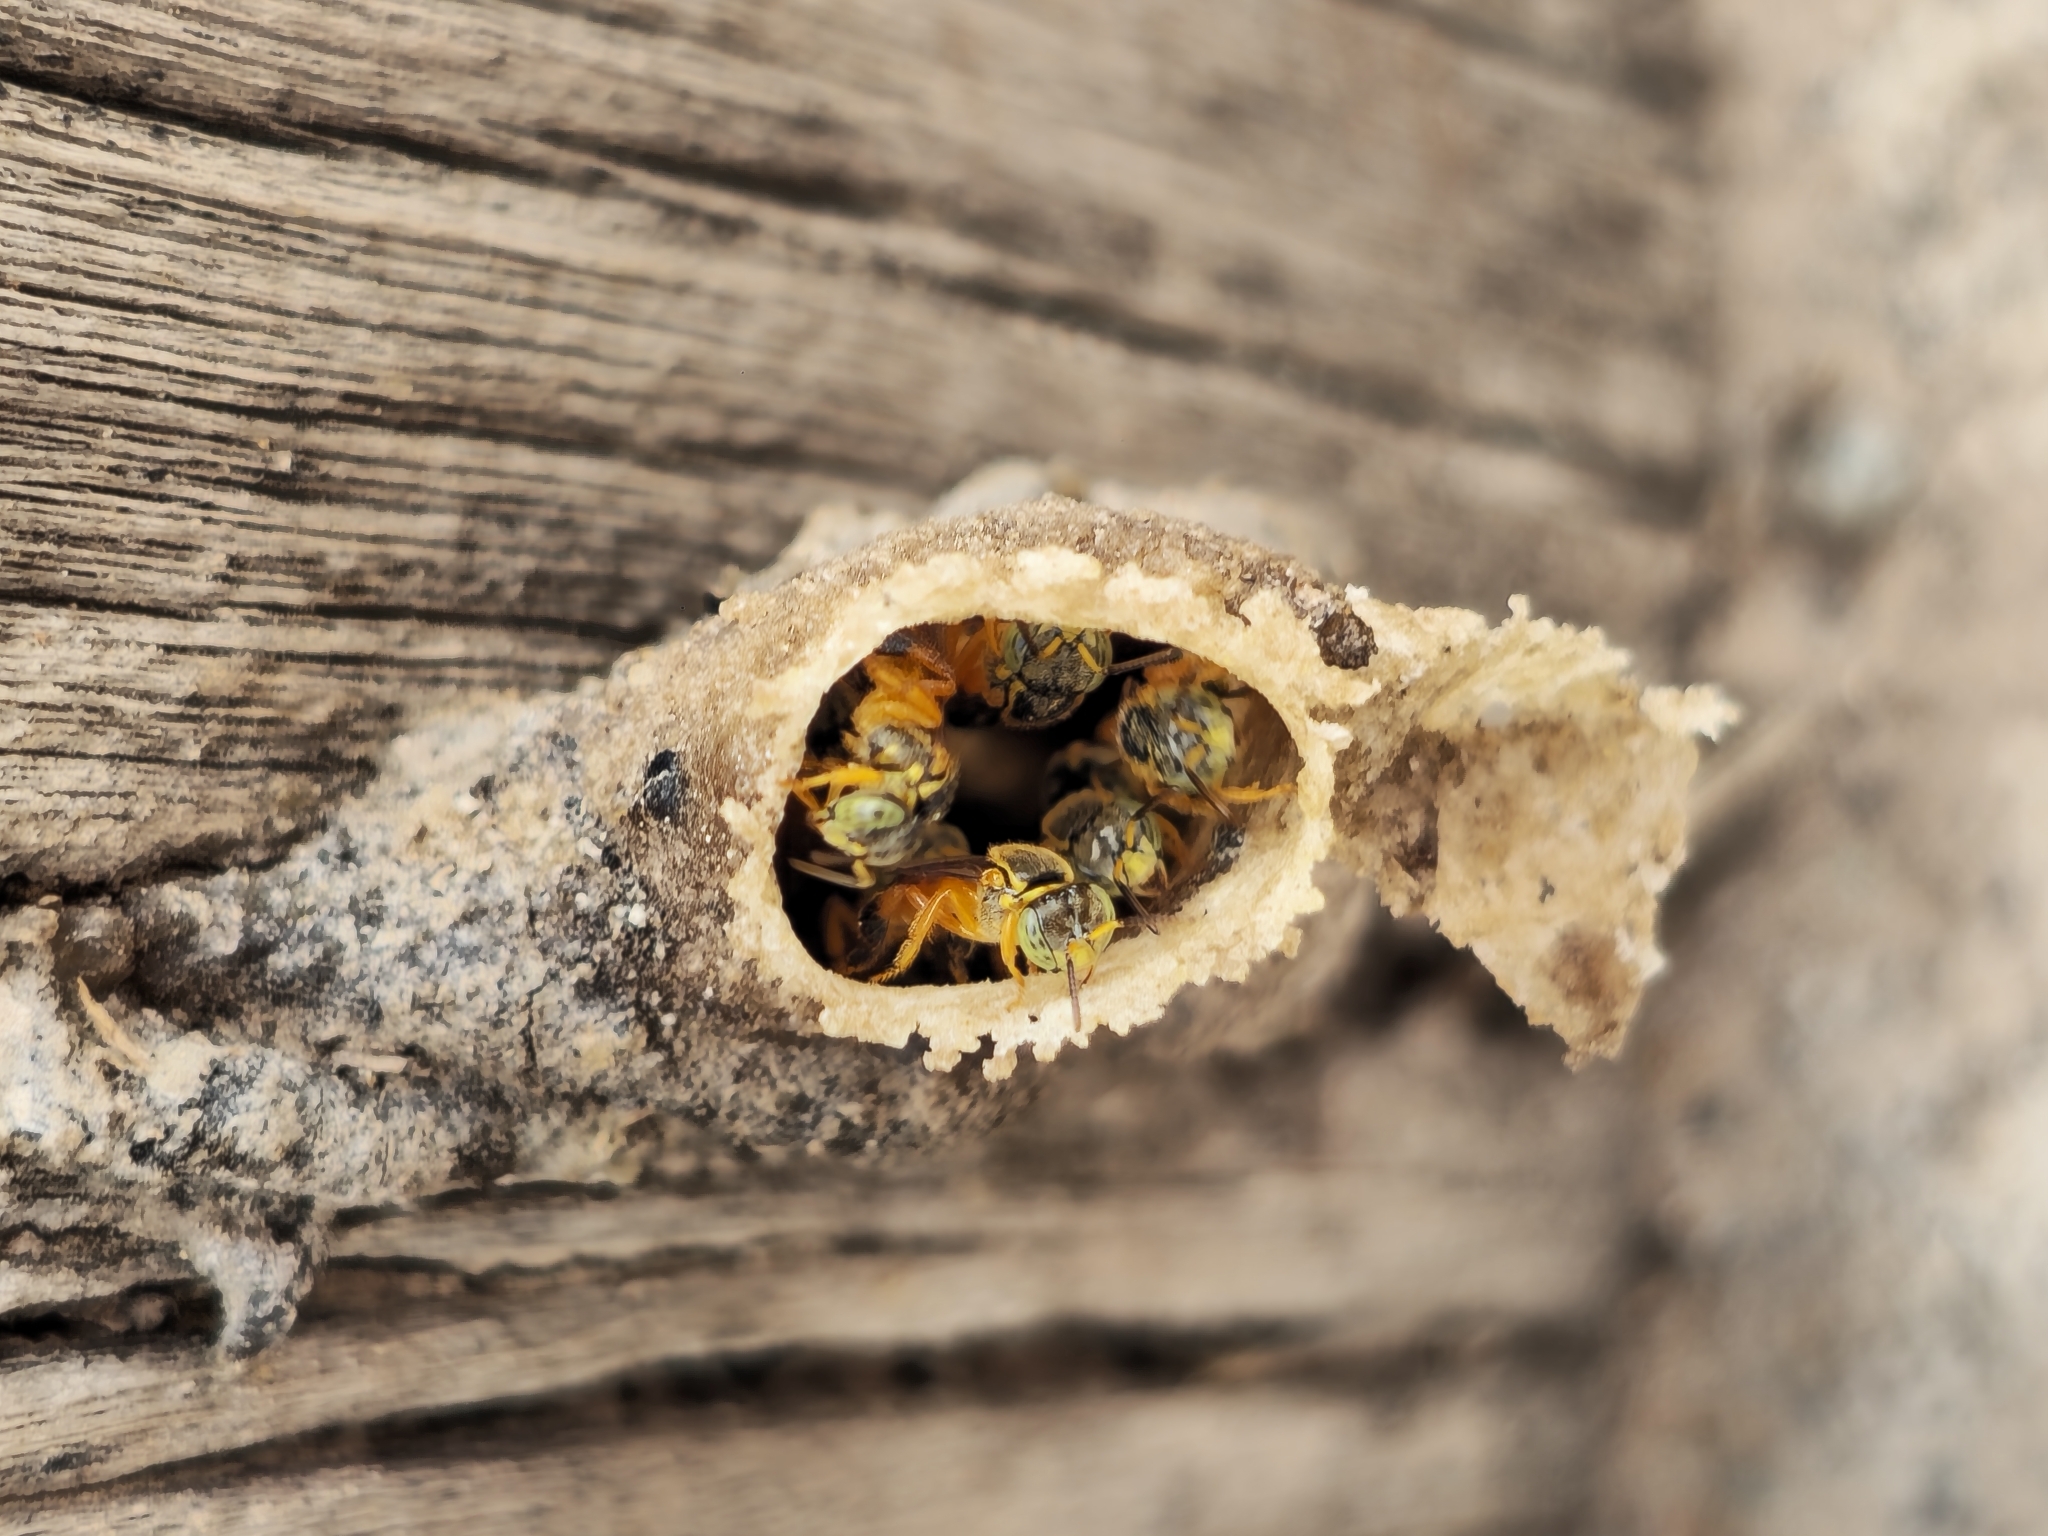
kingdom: Animalia
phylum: Arthropoda
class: Insecta
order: Hymenoptera
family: Apidae
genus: Tetragonisca
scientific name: Tetragonisca fiebrigi
